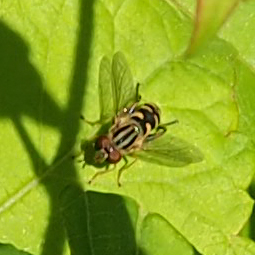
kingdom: Animalia
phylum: Arthropoda
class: Insecta
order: Diptera
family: Syrphidae
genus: Anasimyia
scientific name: Anasimyia
